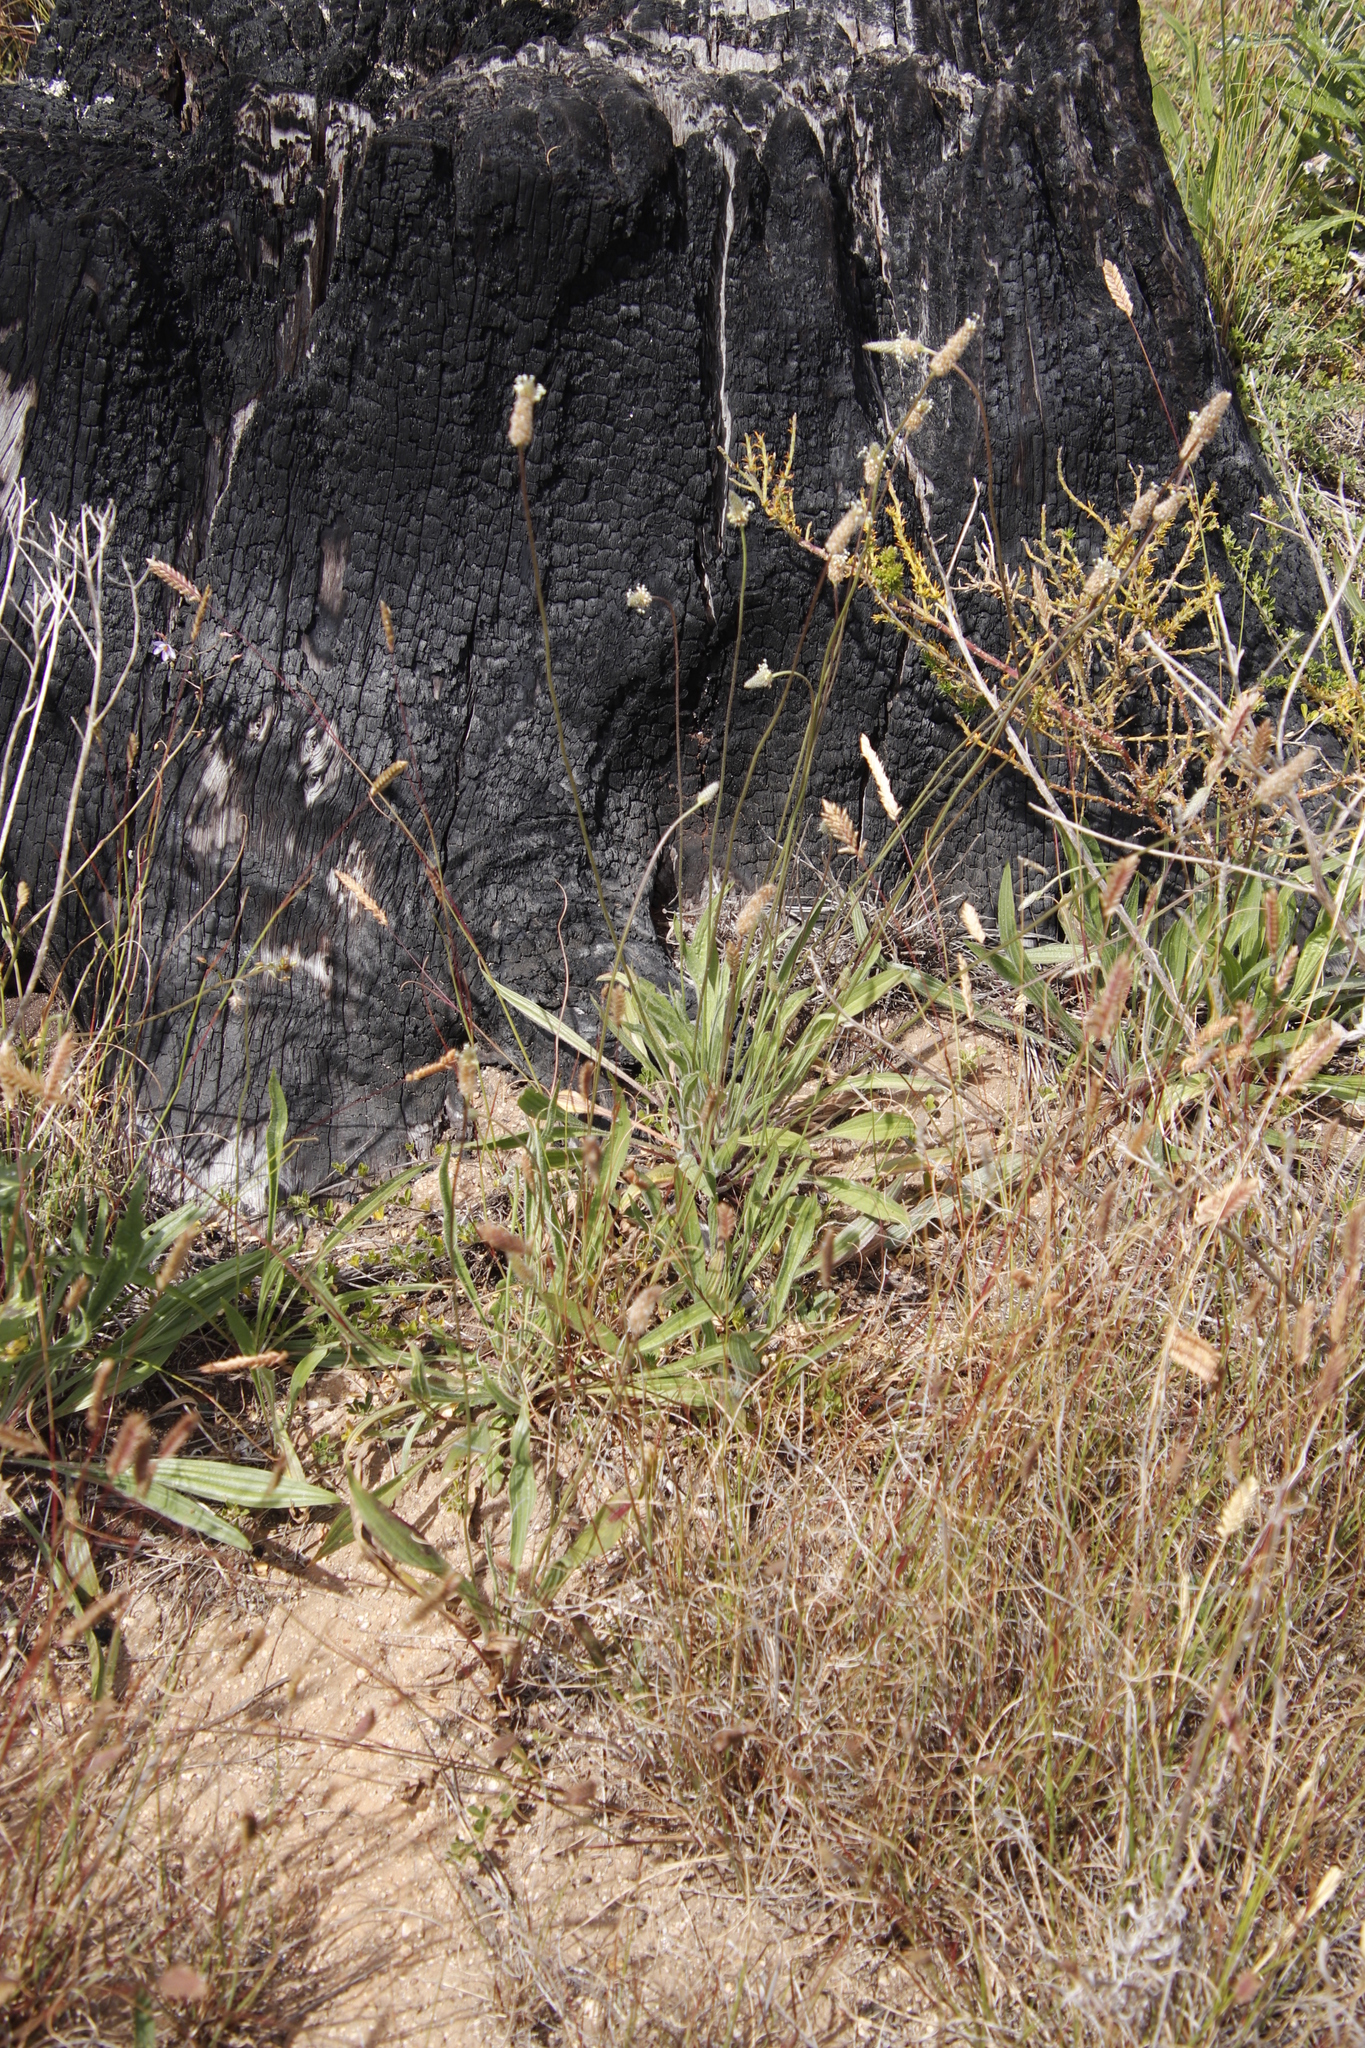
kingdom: Plantae
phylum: Tracheophyta
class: Magnoliopsida
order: Lamiales
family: Plantaginaceae
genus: Plantago
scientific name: Plantago lanceolata
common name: Ribwort plantain
